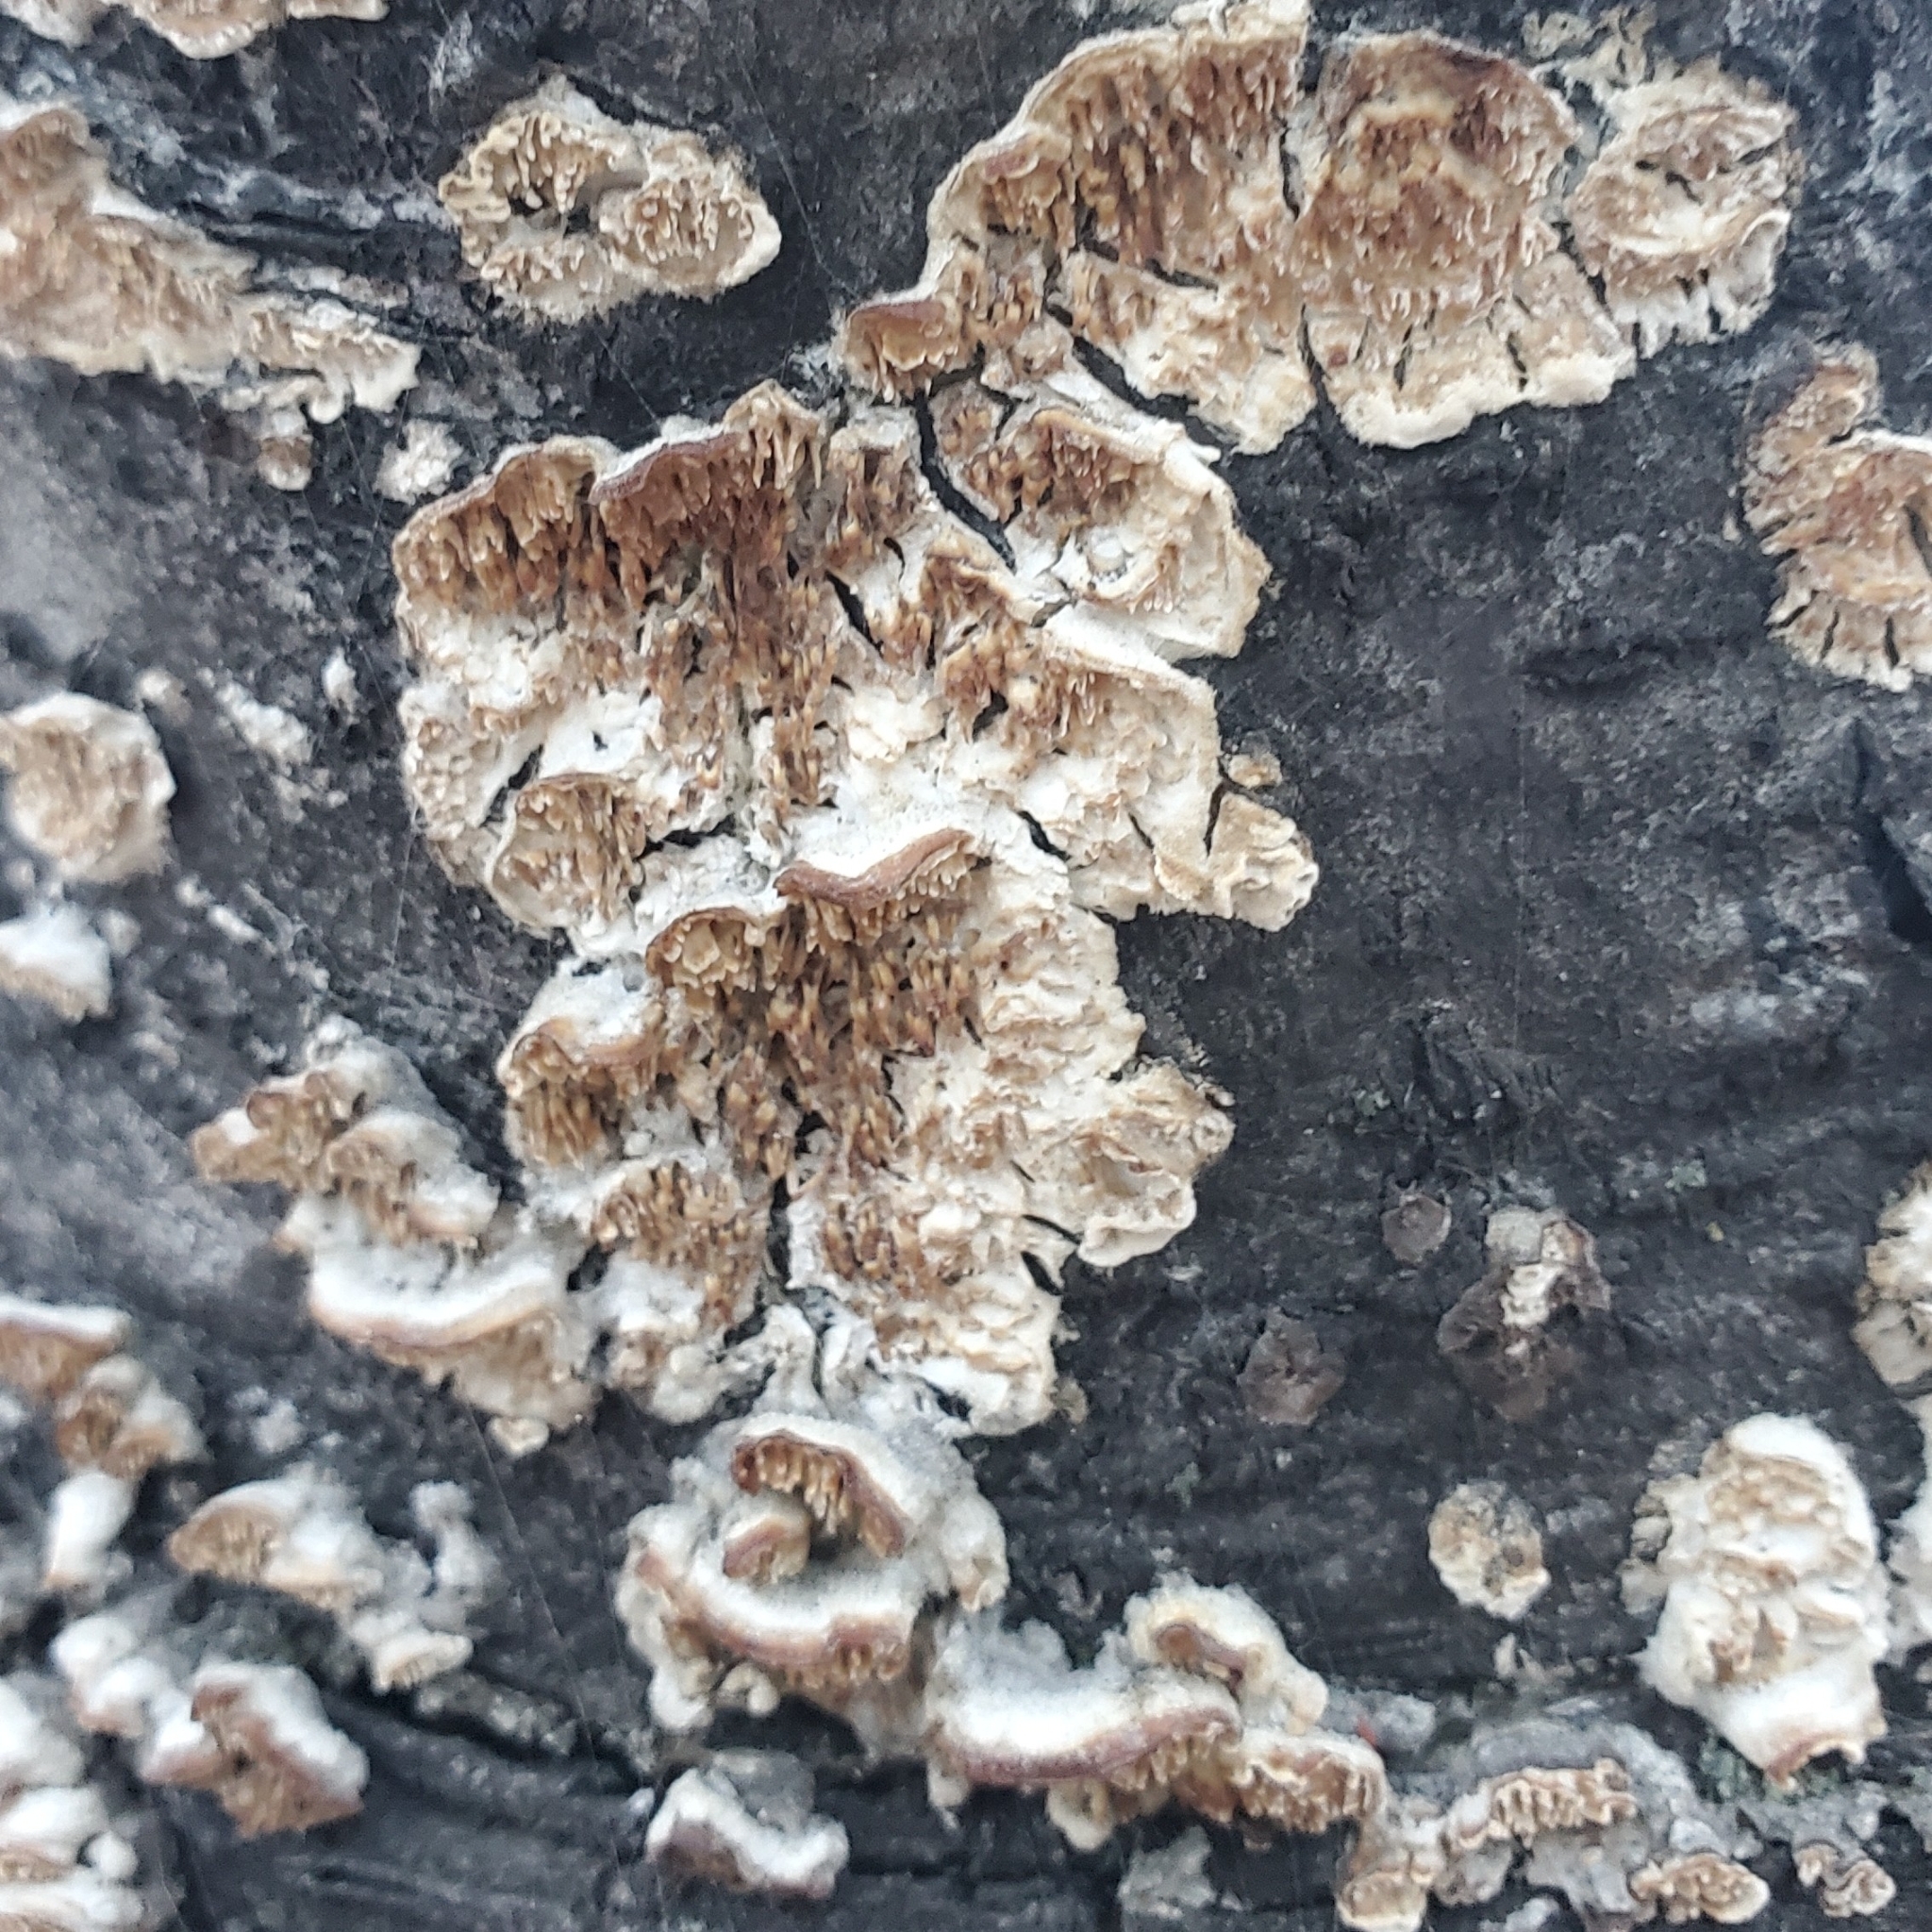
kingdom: Fungi
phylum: Basidiomycota
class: Agaricomycetes
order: Polyporales
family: Irpicaceae
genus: Irpex
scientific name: Irpex lacteus
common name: Milk-white toothed polypore
